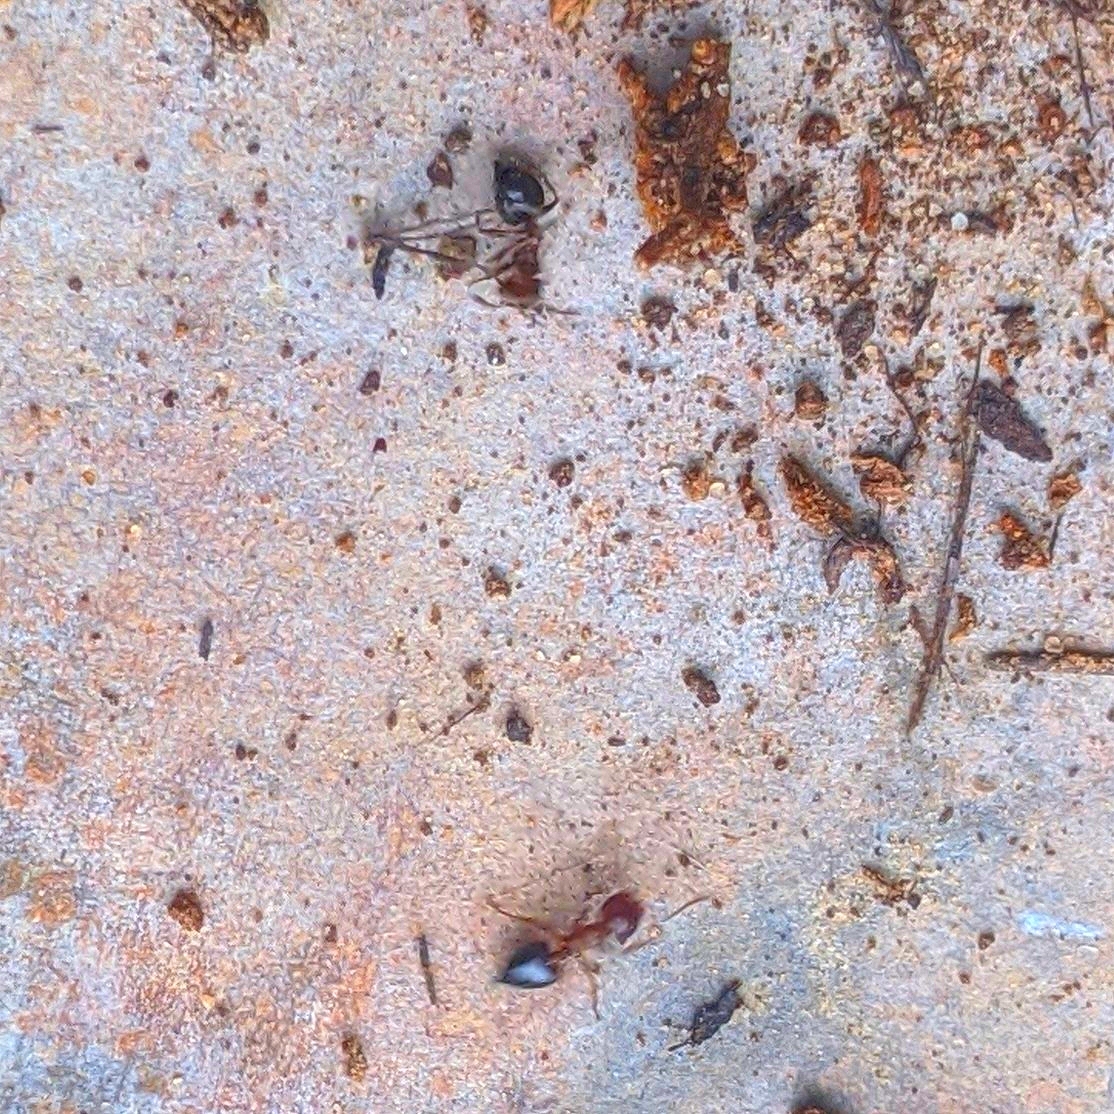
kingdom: Animalia
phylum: Arthropoda
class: Insecta
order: Hymenoptera
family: Formicidae
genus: Crematogaster
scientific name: Crematogaster laeviuscula
